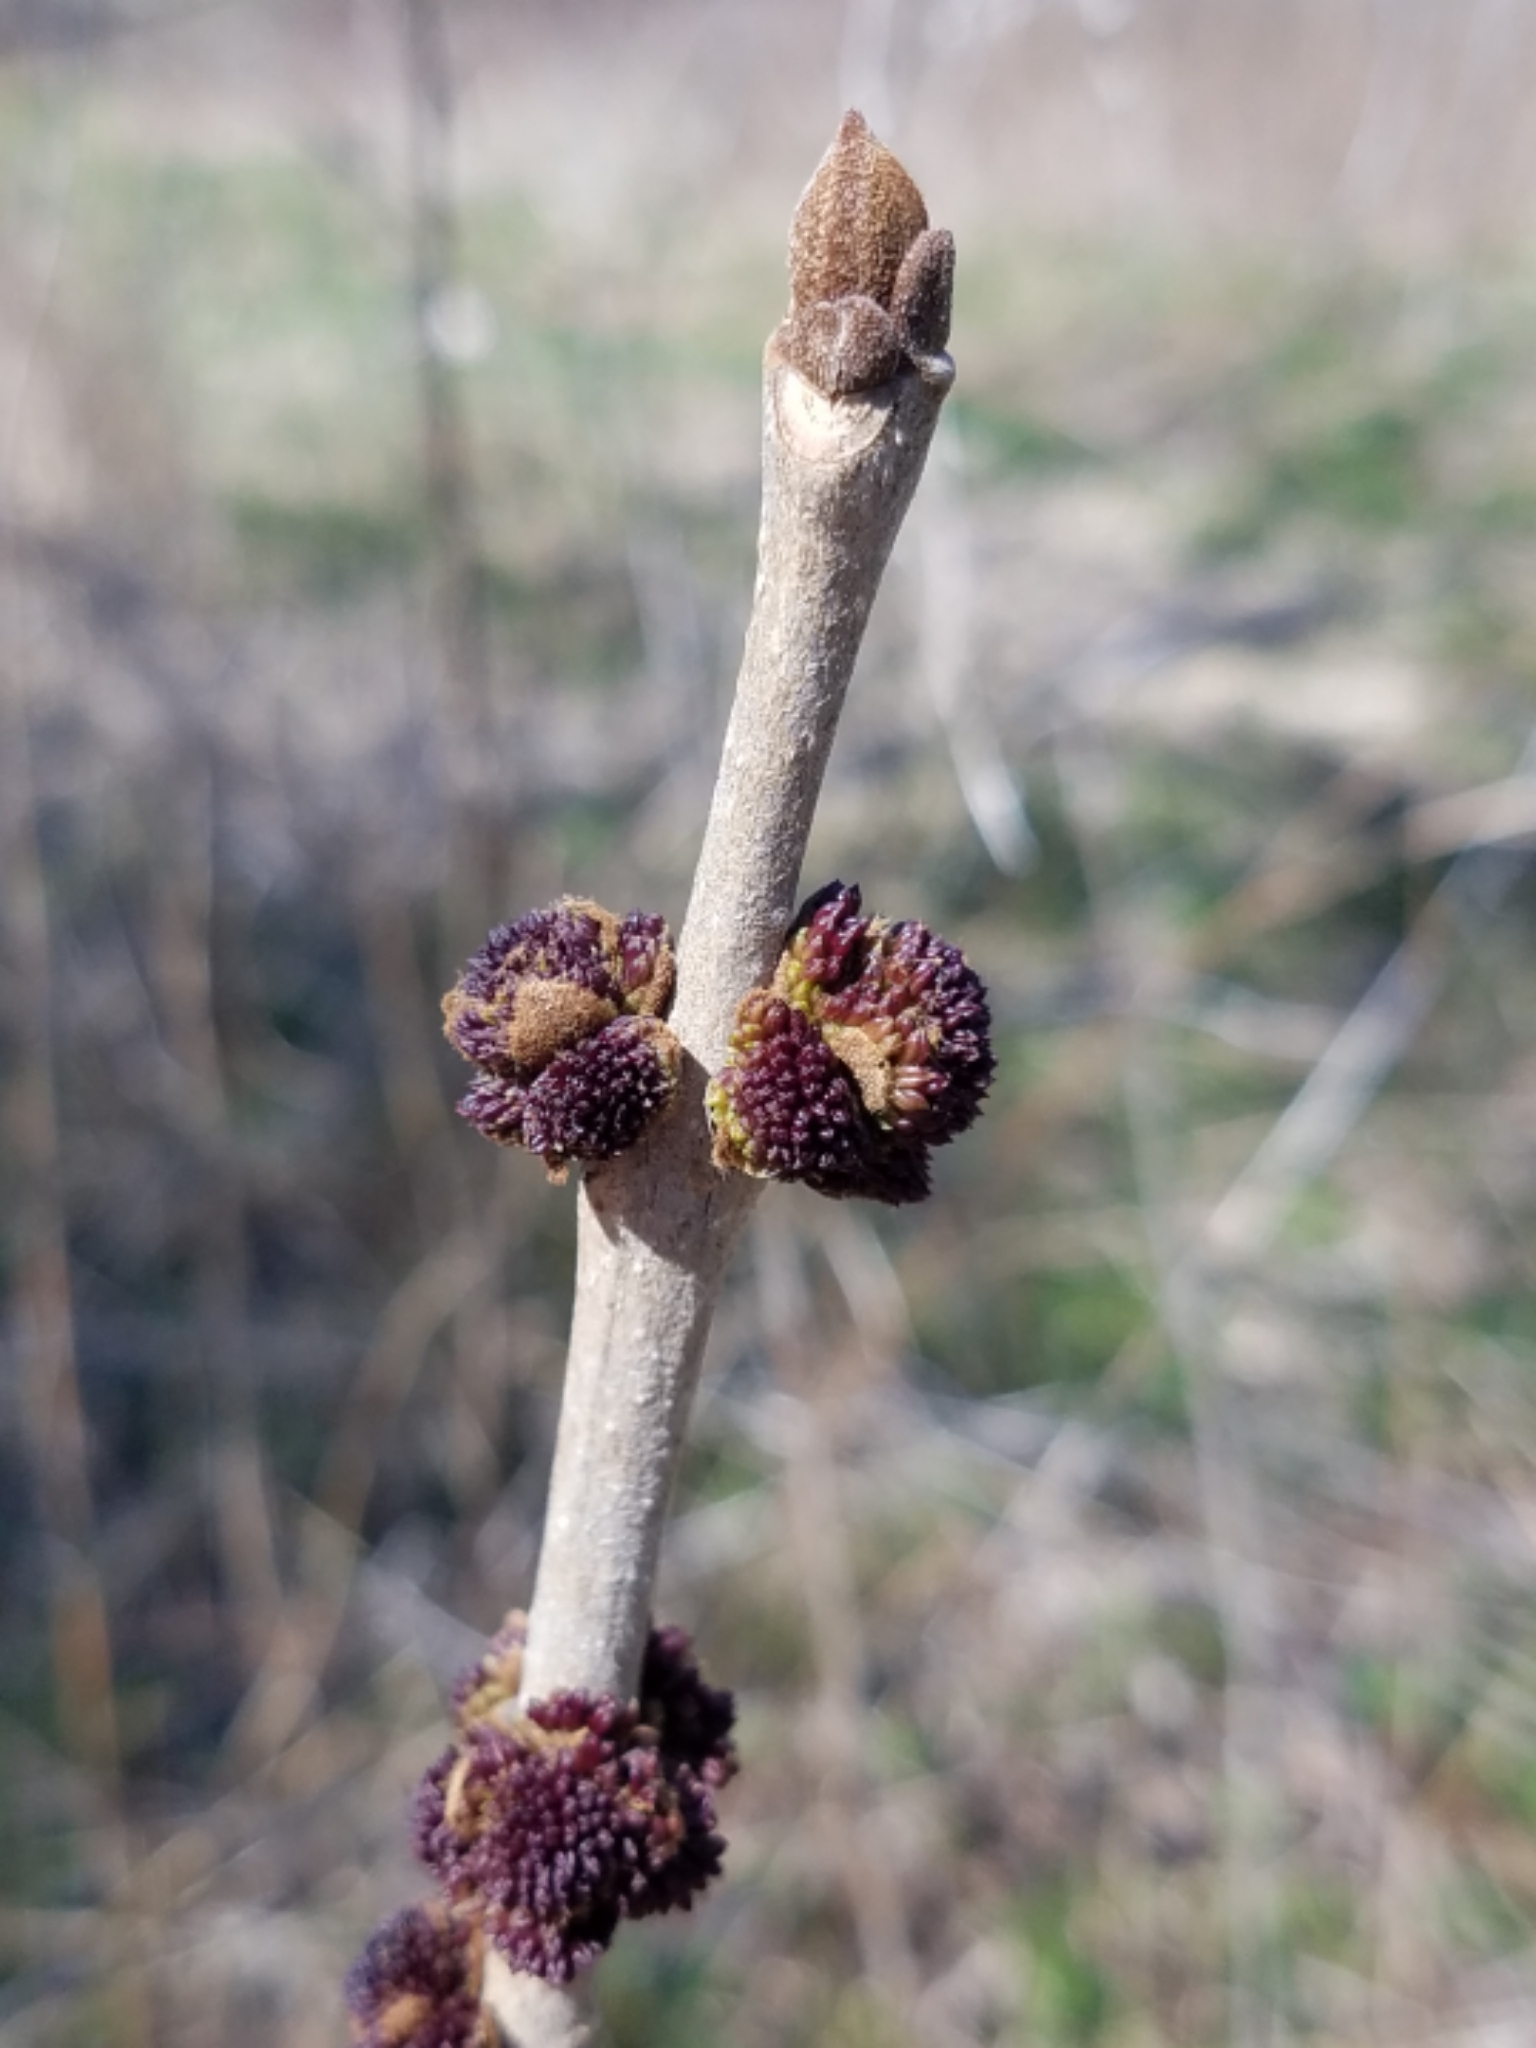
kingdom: Plantae
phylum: Tracheophyta
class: Magnoliopsida
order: Lamiales
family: Oleaceae
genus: Fraxinus
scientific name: Fraxinus pennsylvanica
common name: Green ash
